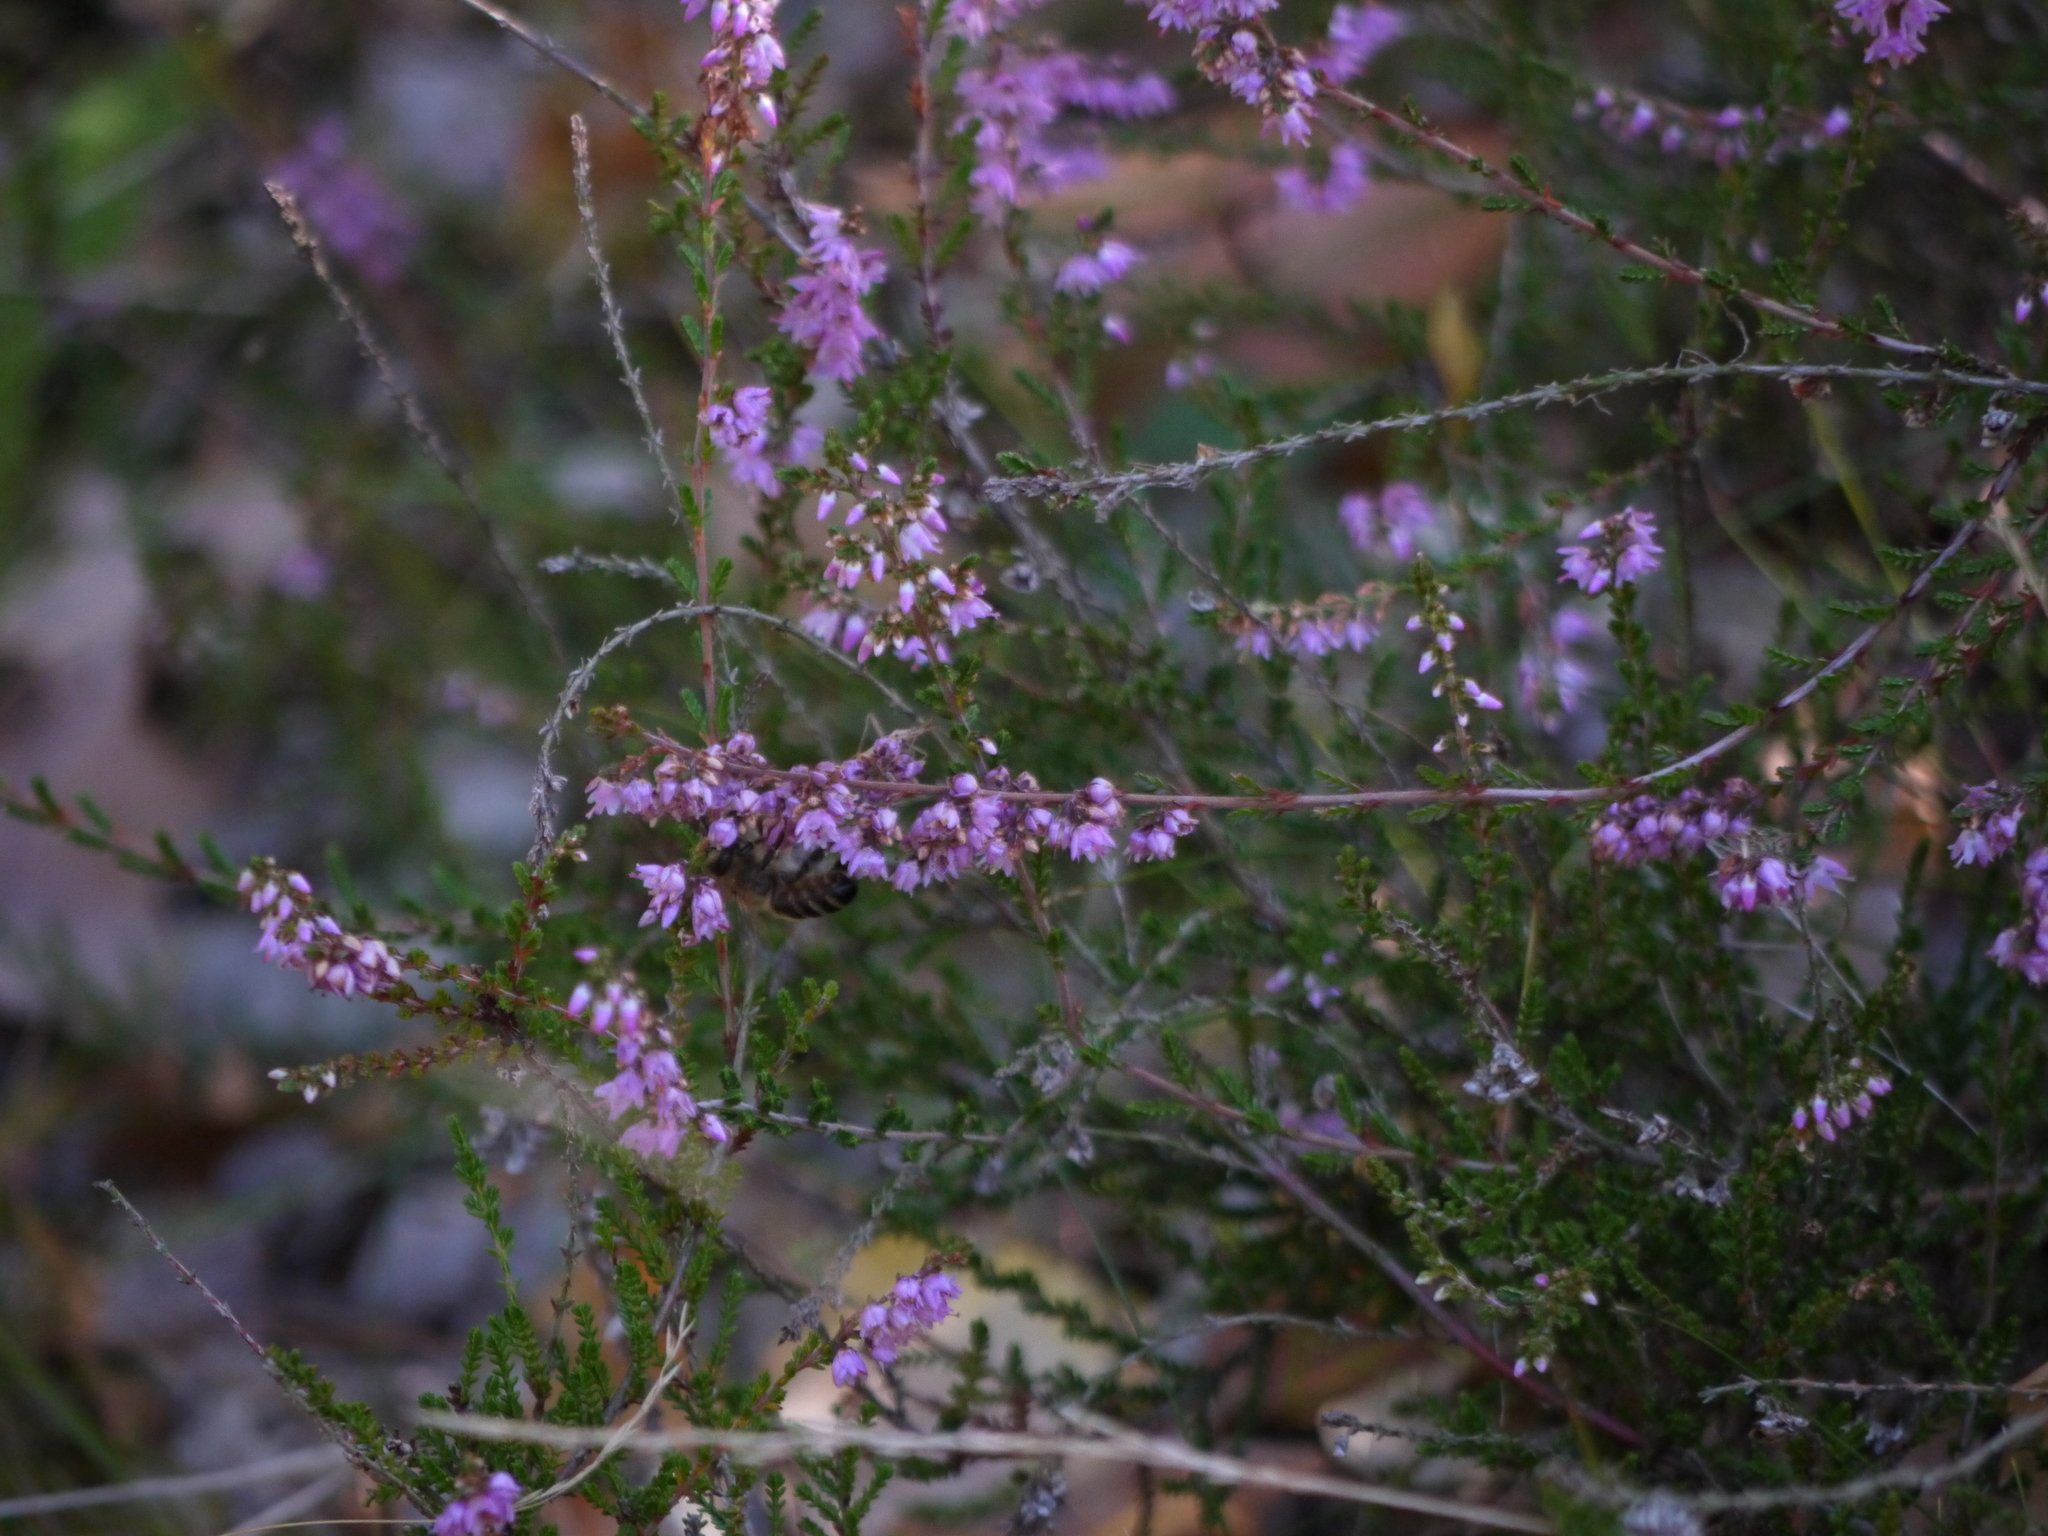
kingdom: Animalia
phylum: Arthropoda
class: Insecta
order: Hymenoptera
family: Apidae
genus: Apis
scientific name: Apis mellifera
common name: Honey bee
